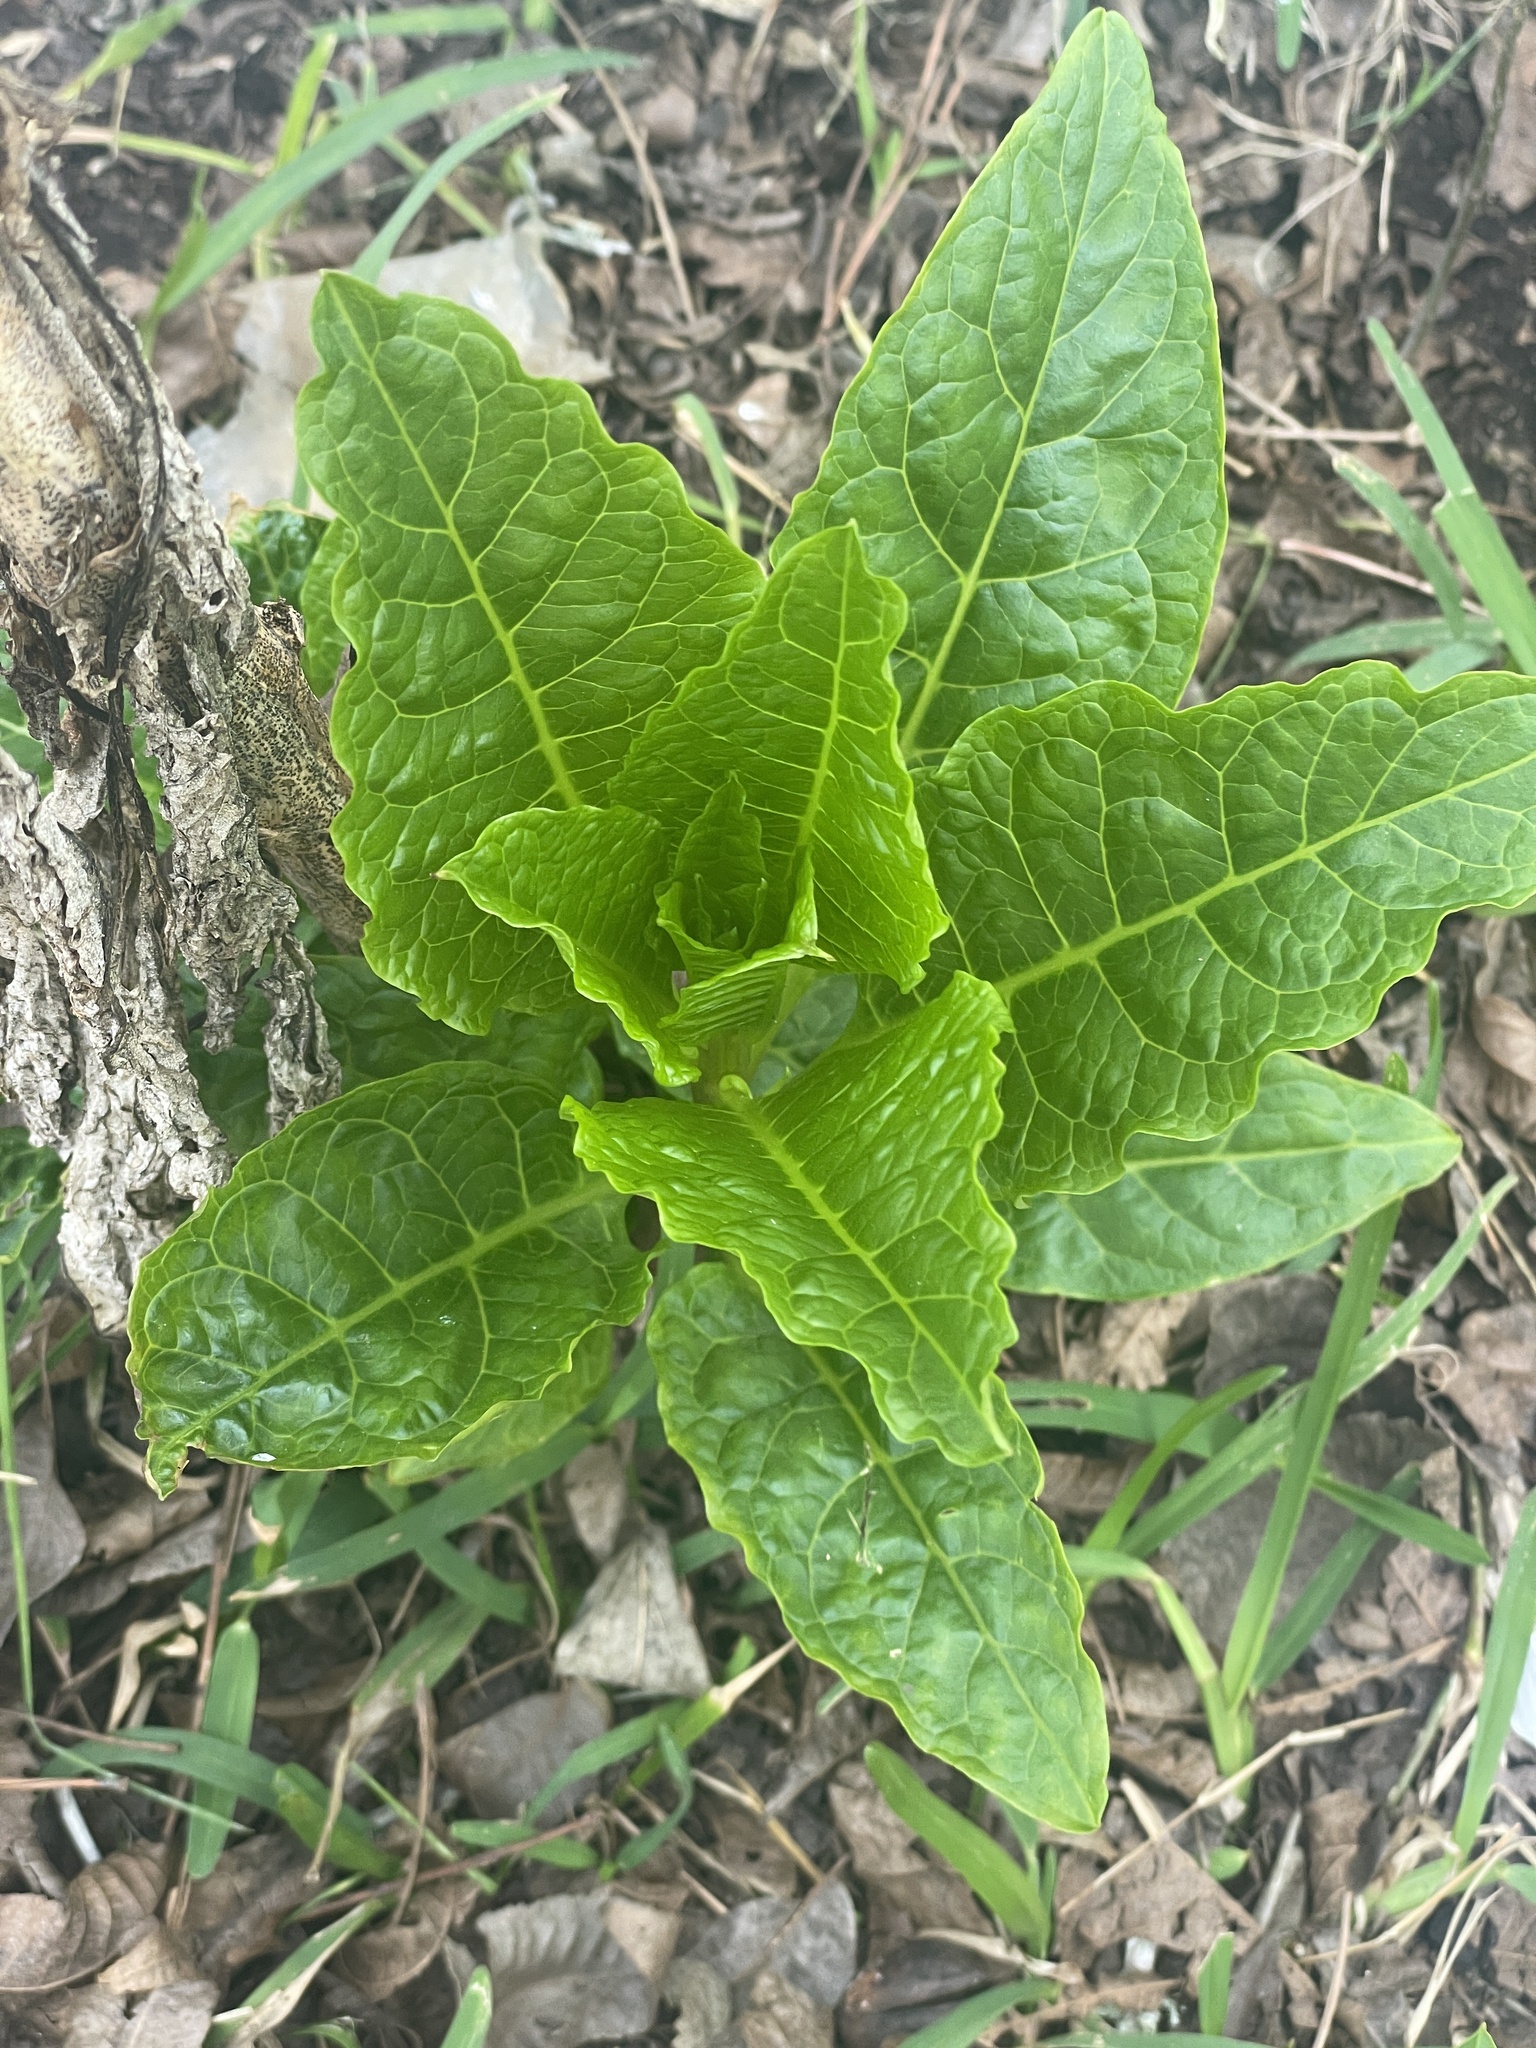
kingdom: Plantae
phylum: Tracheophyta
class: Magnoliopsida
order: Caryophyllales
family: Phytolaccaceae
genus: Phytolacca
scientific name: Phytolacca americana
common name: American pokeweed
